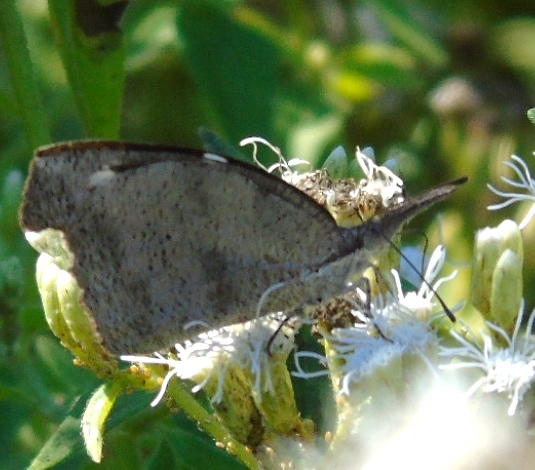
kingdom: Animalia
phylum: Arthropoda
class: Insecta
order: Lepidoptera
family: Nymphalidae
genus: Libytheana
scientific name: Libytheana carinenta
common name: American snout
